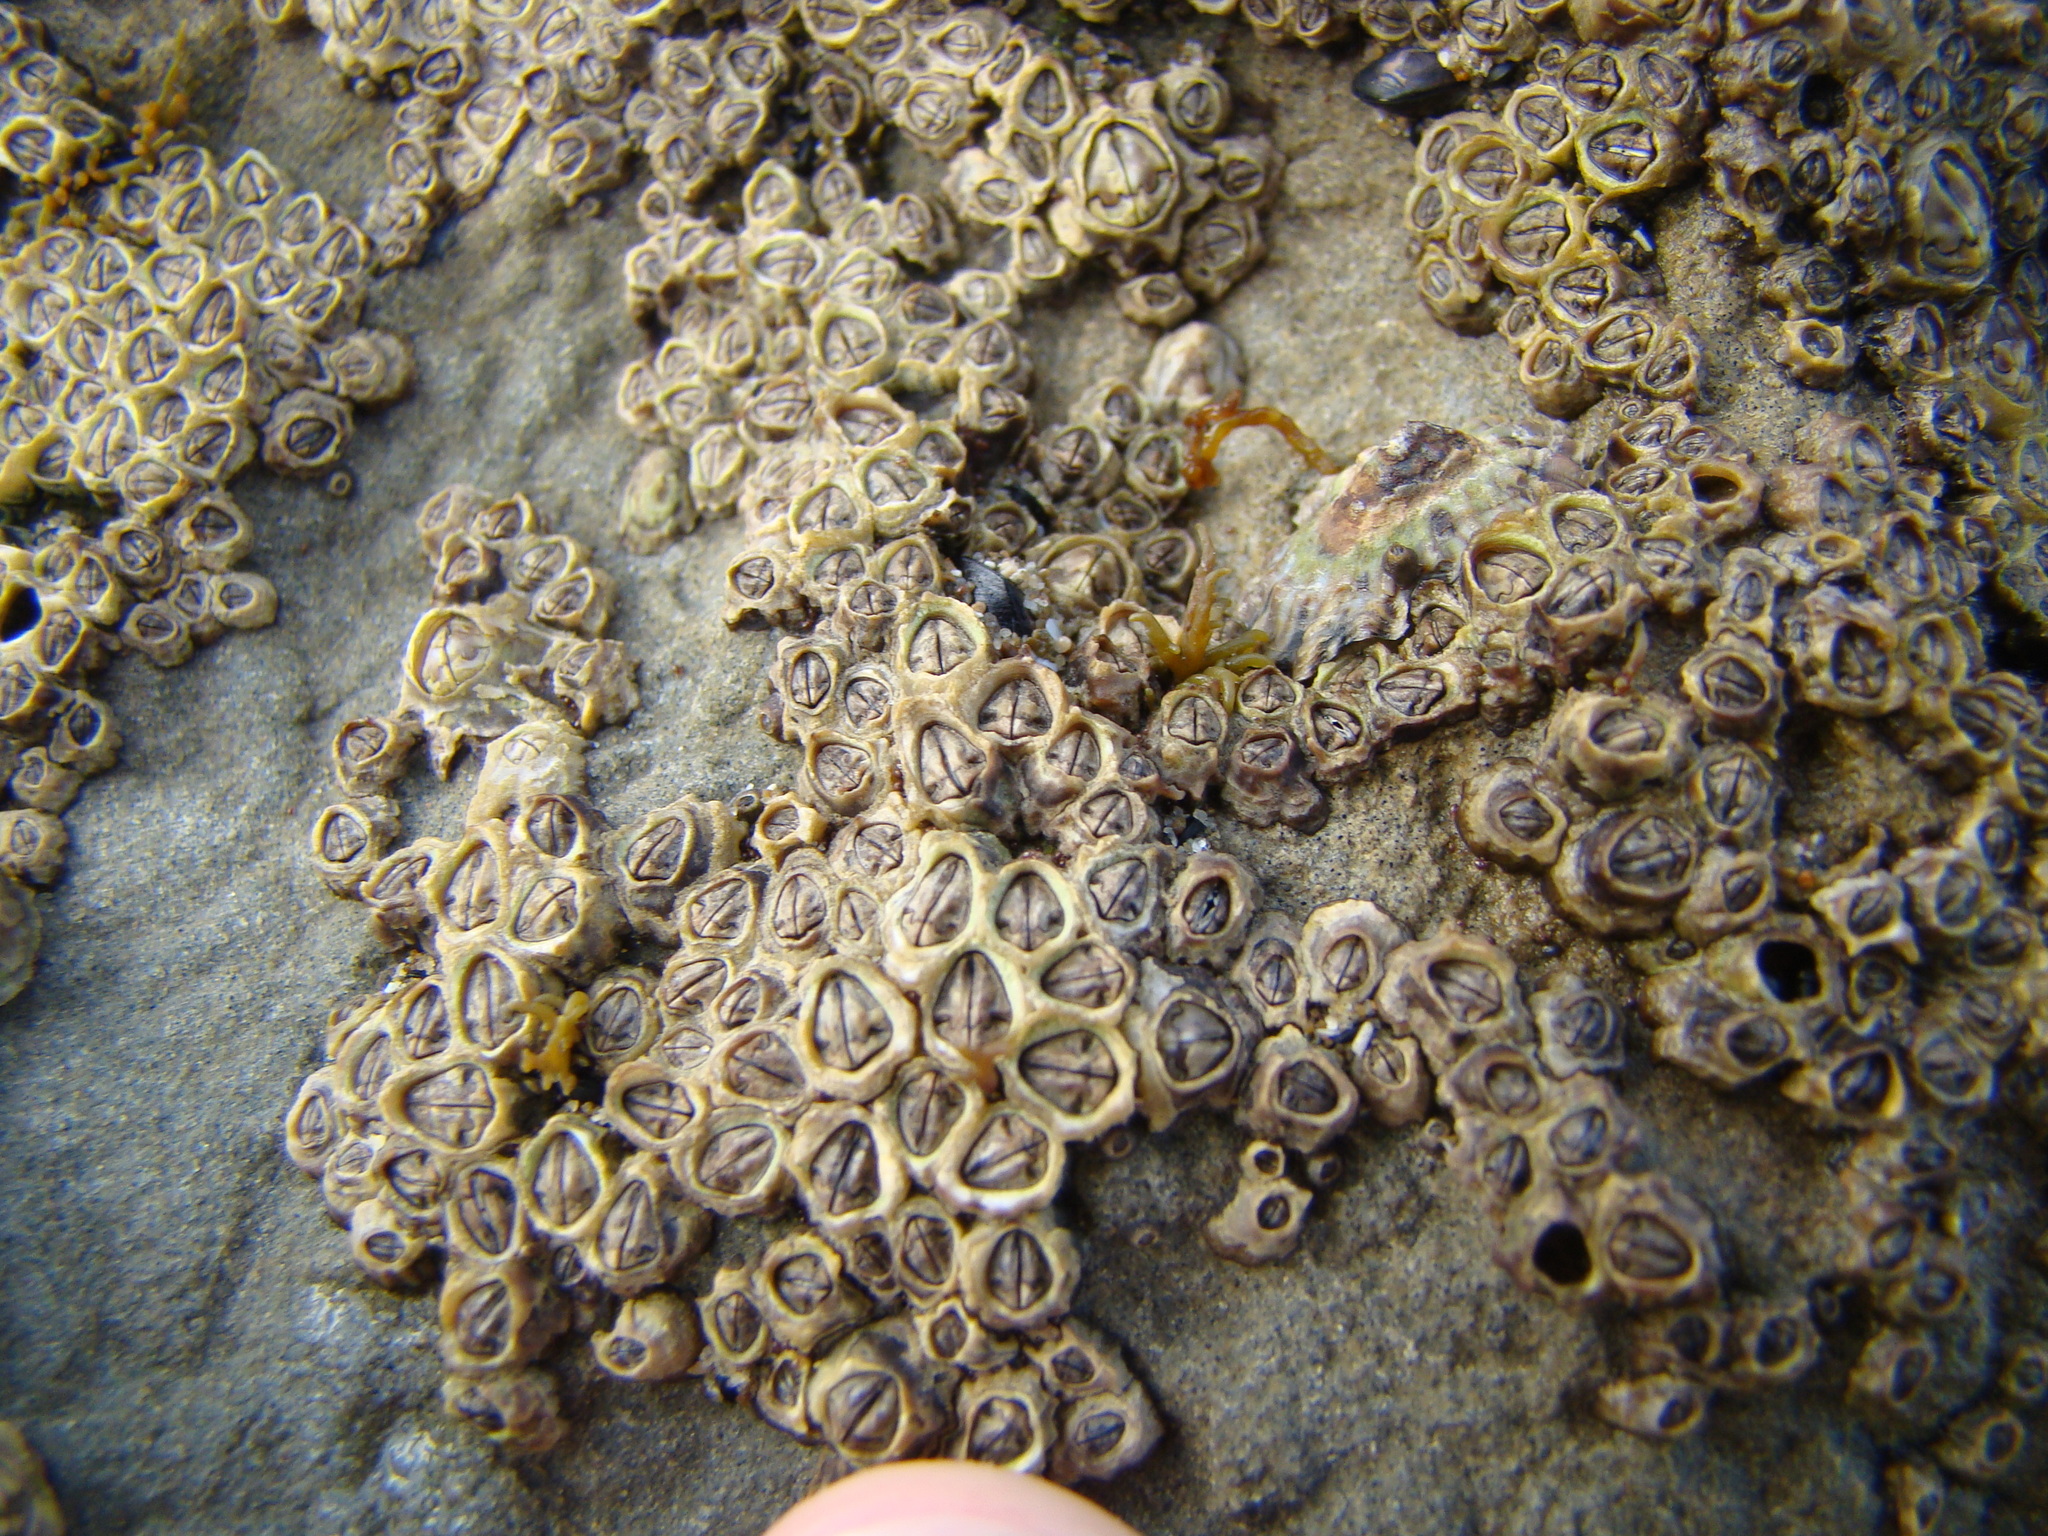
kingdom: Animalia
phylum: Arthropoda
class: Maxillopoda
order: Sessilia
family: Chthamalidae
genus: Chamaesipho
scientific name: Chamaesipho columna
